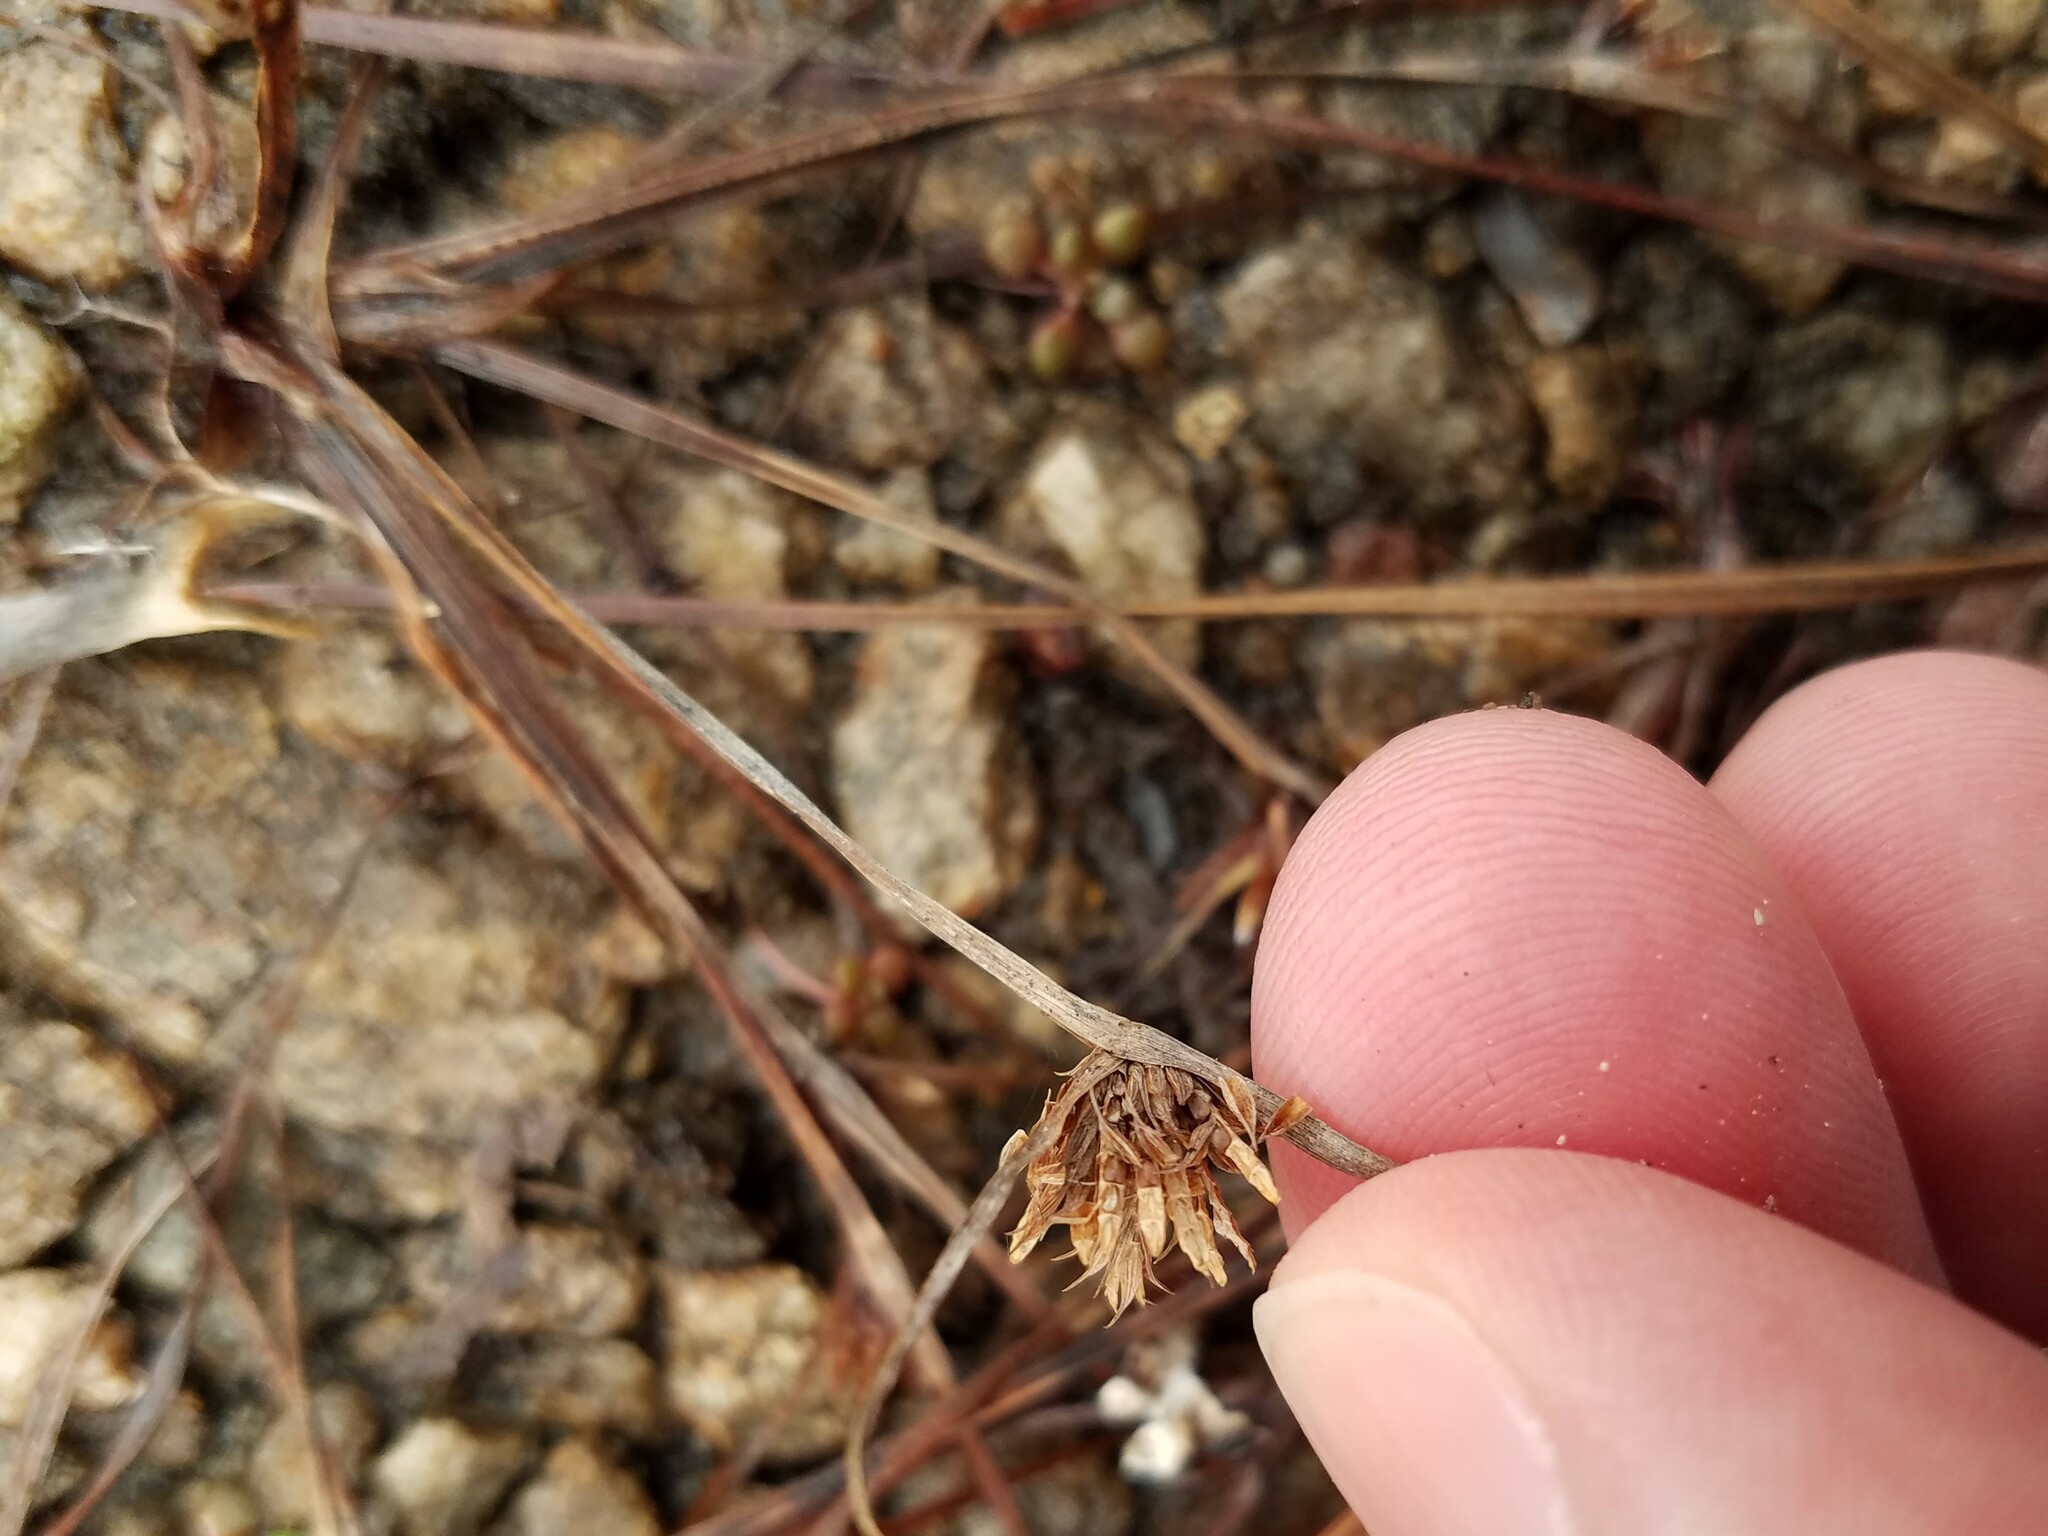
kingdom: Plantae
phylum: Tracheophyta
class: Liliopsida
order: Poales
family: Cyperaceae
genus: Cyperus
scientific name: Cyperus granitophilus
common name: Granite flatsedge
